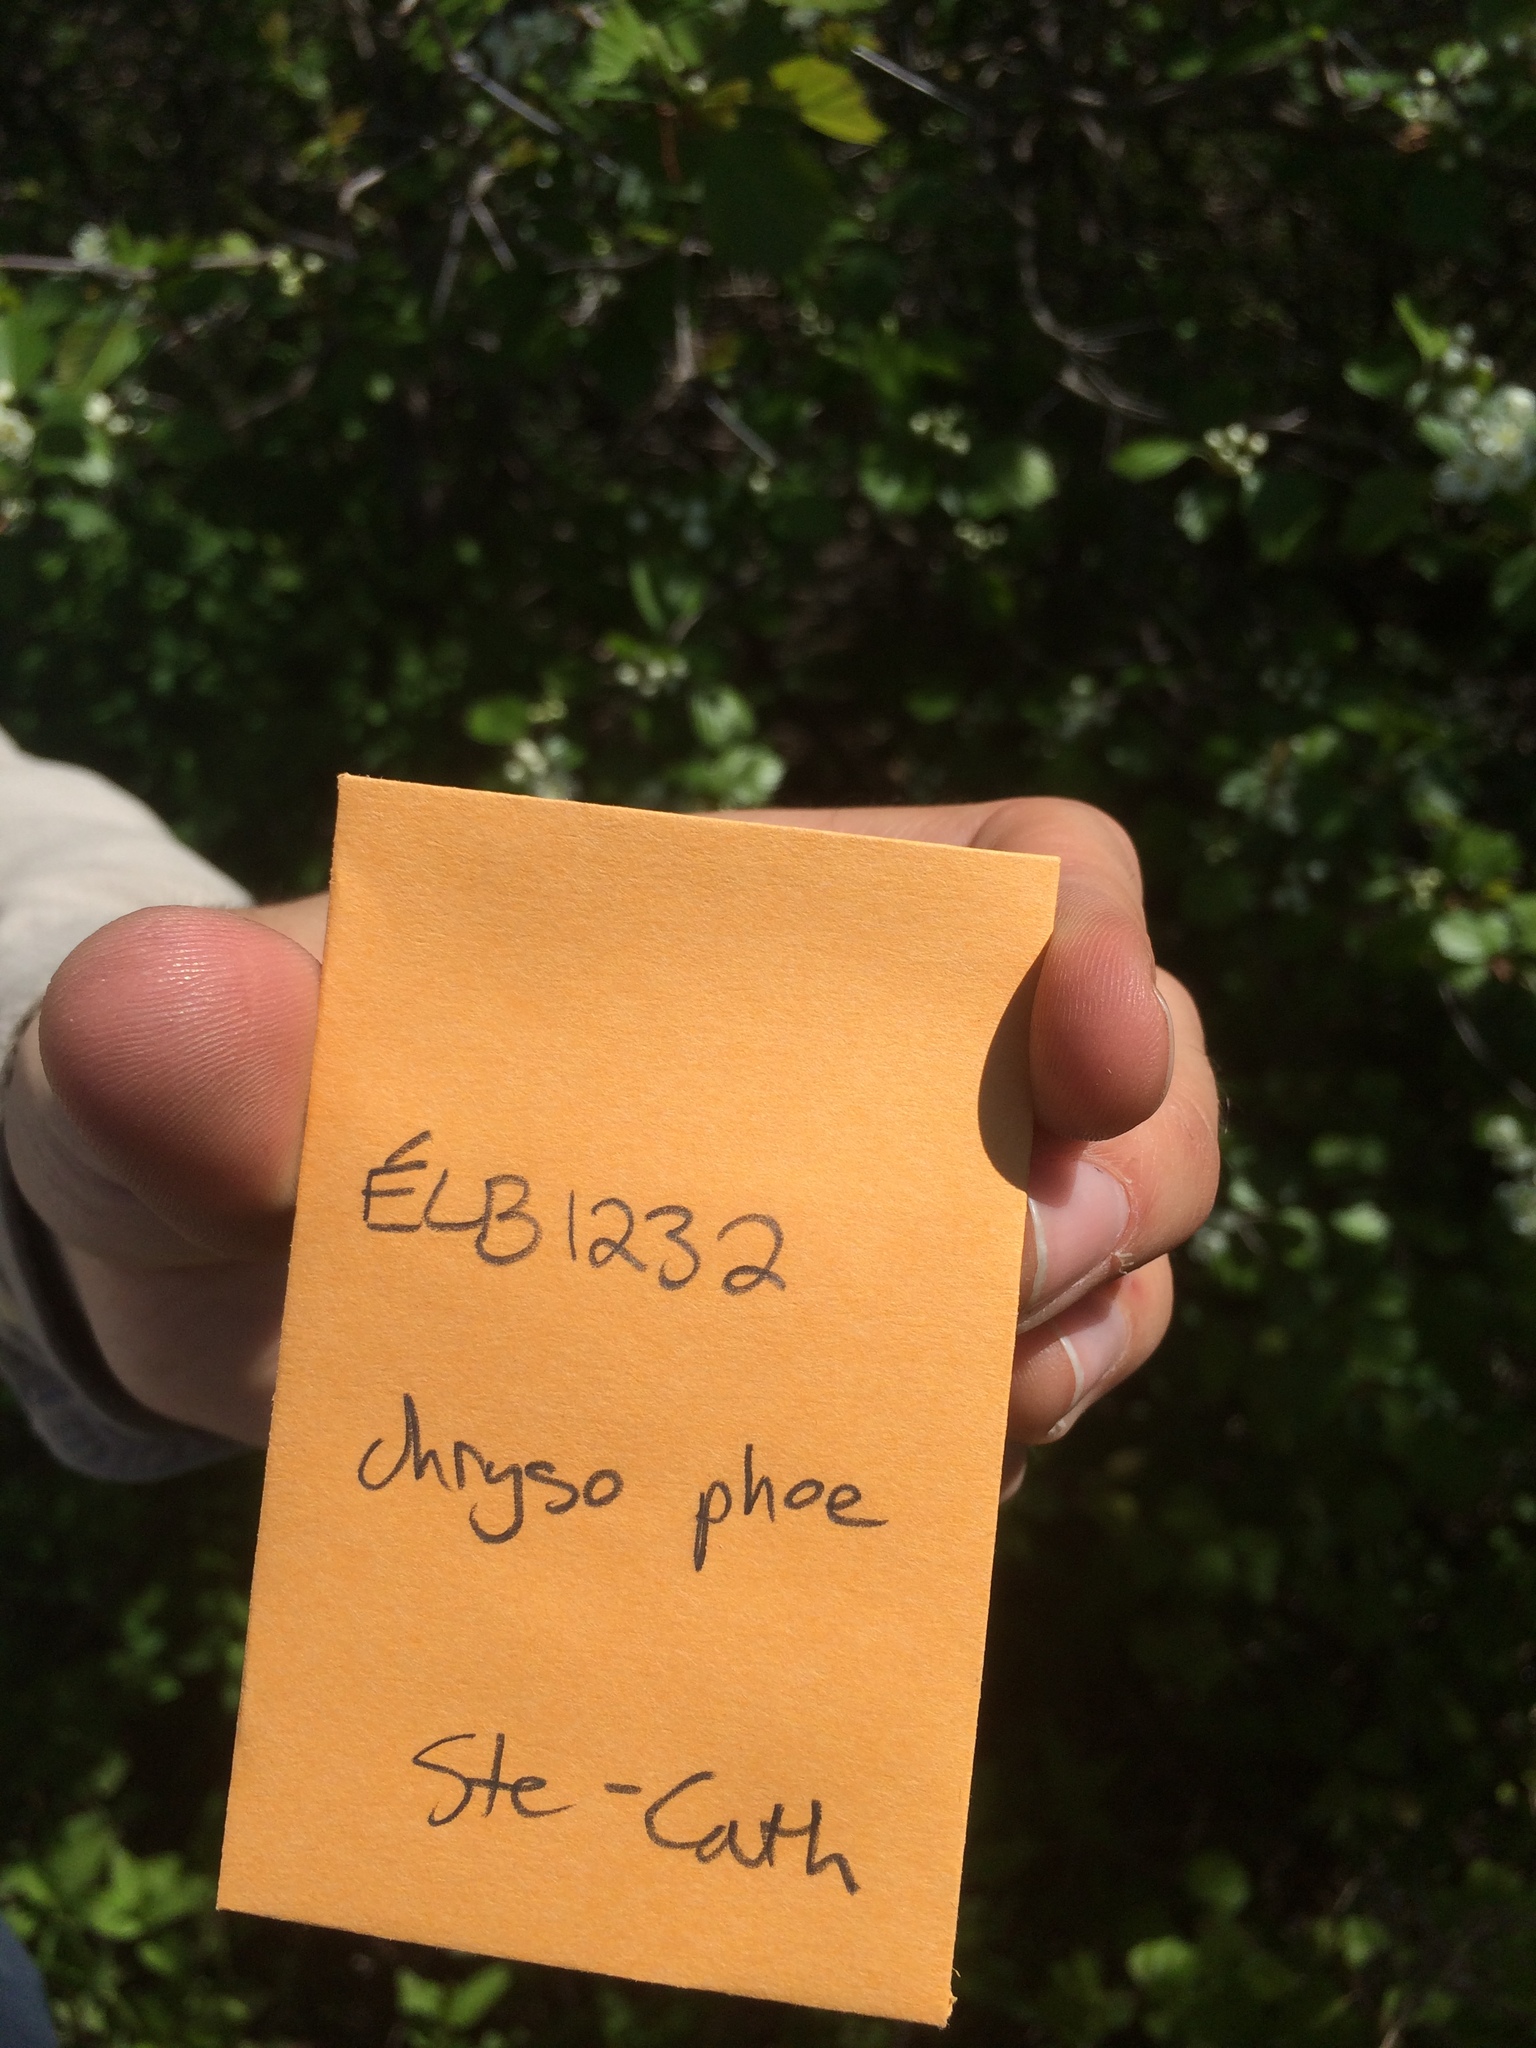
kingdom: Plantae
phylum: Tracheophyta
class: Magnoliopsida
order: Rosales
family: Rosaceae
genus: Crataegus
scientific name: Crataegus chrysocarpa
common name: Fire-berry hawthorn
